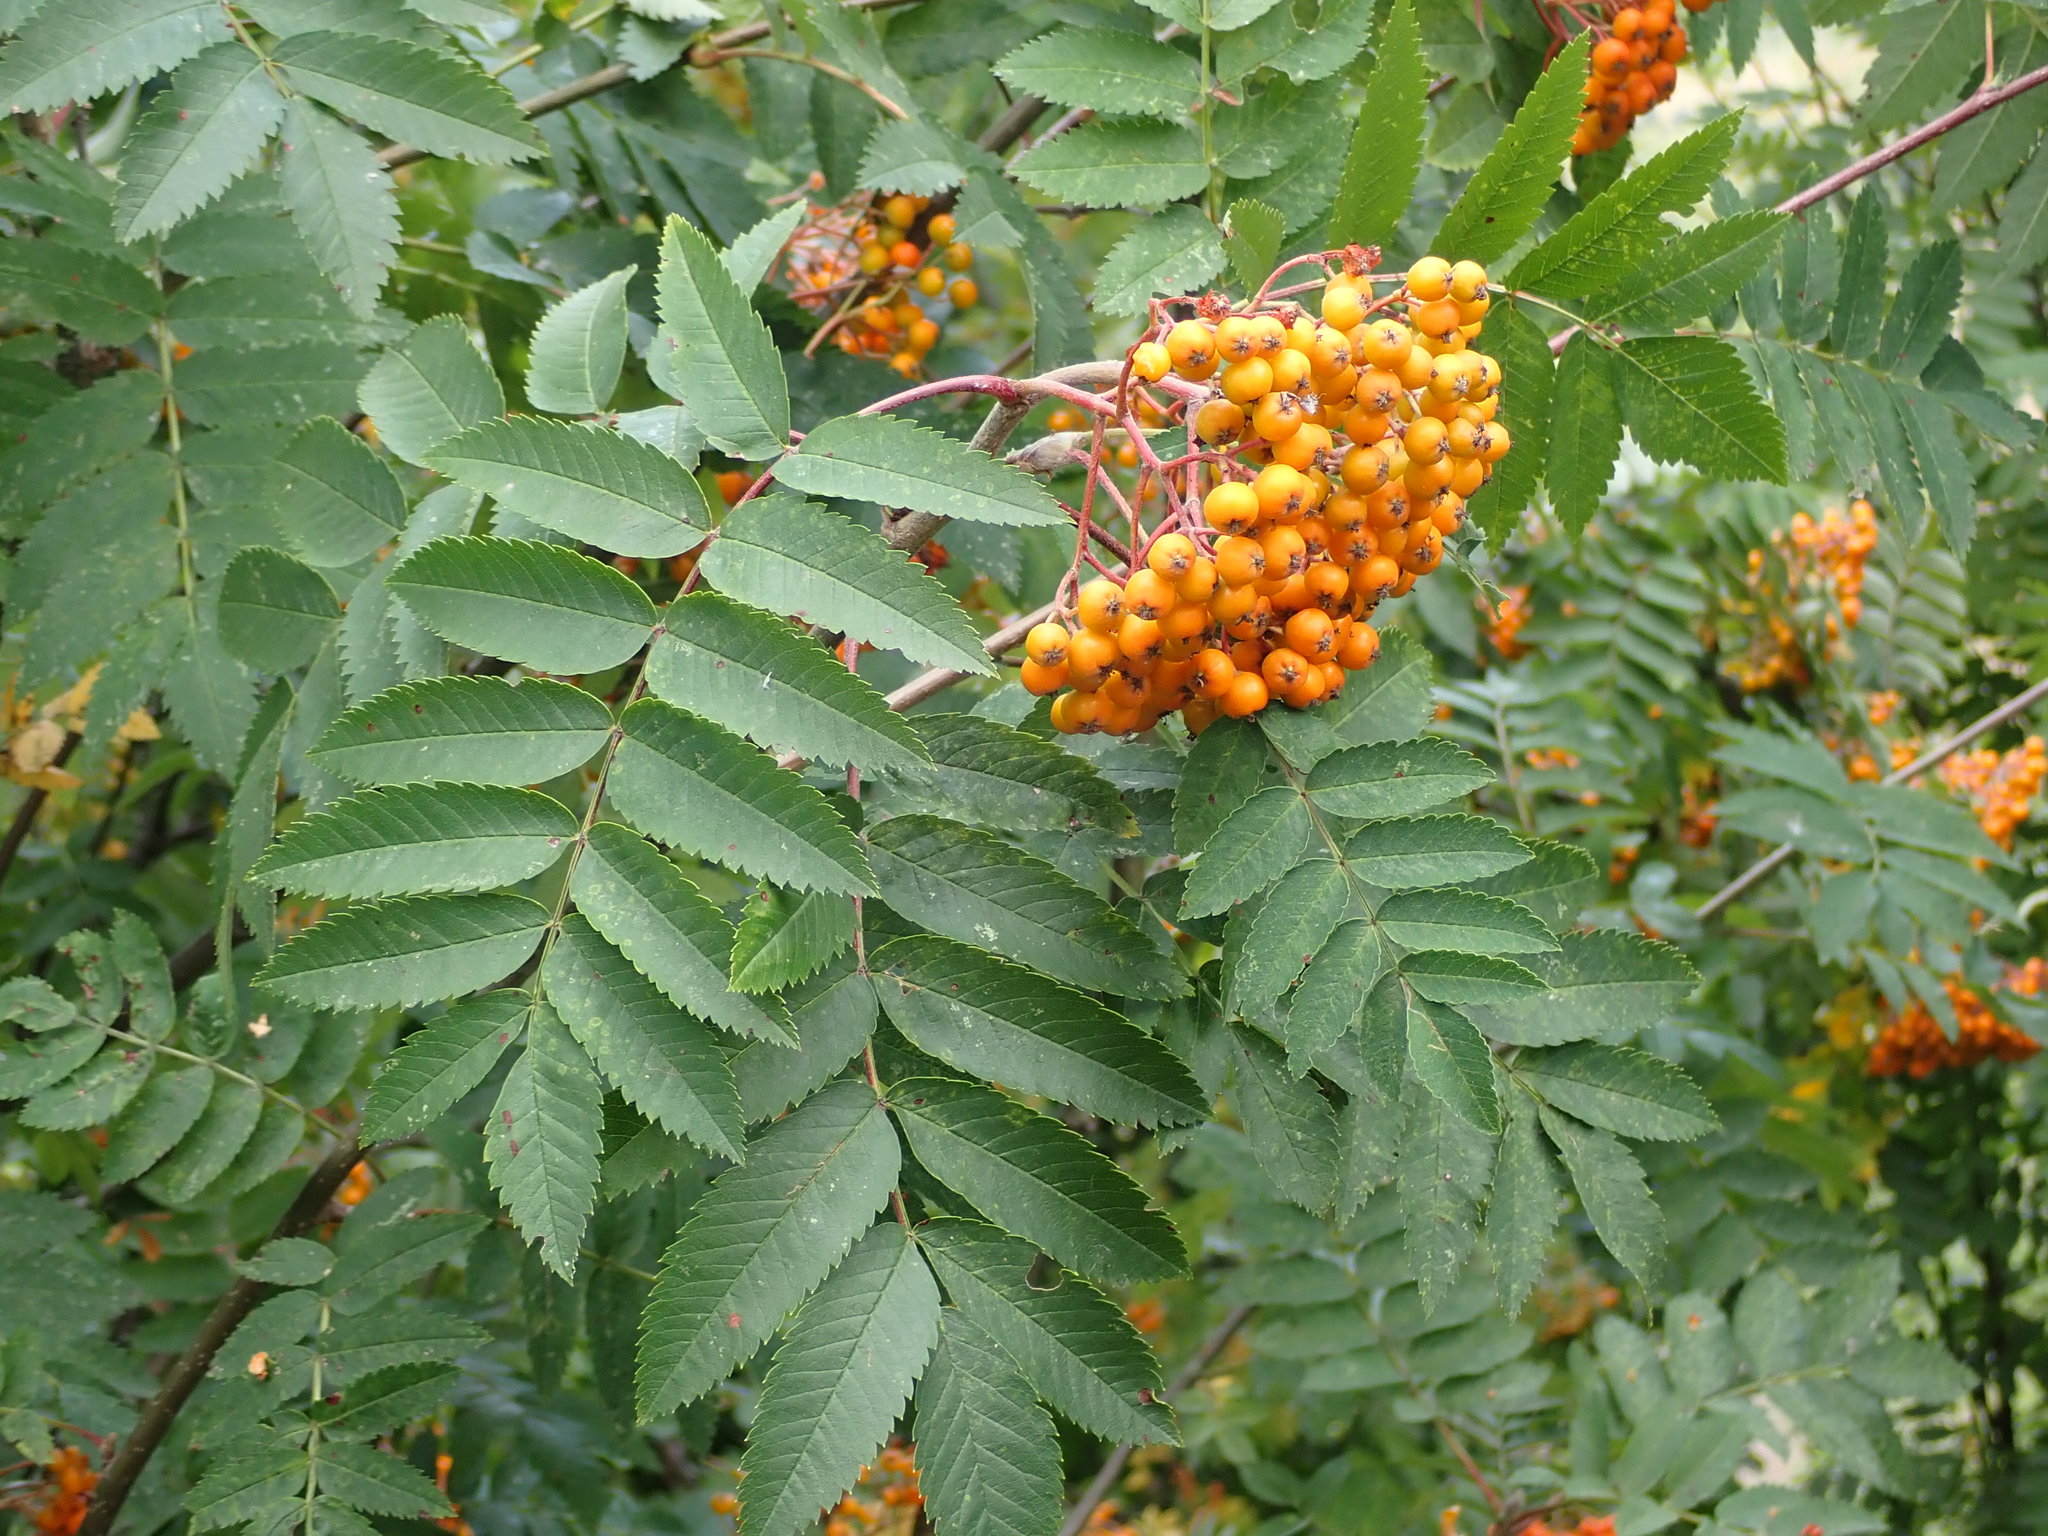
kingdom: Plantae
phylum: Tracheophyta
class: Magnoliopsida
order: Rosales
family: Rosaceae
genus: Sorbus
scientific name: Sorbus aucuparia
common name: Rowan
